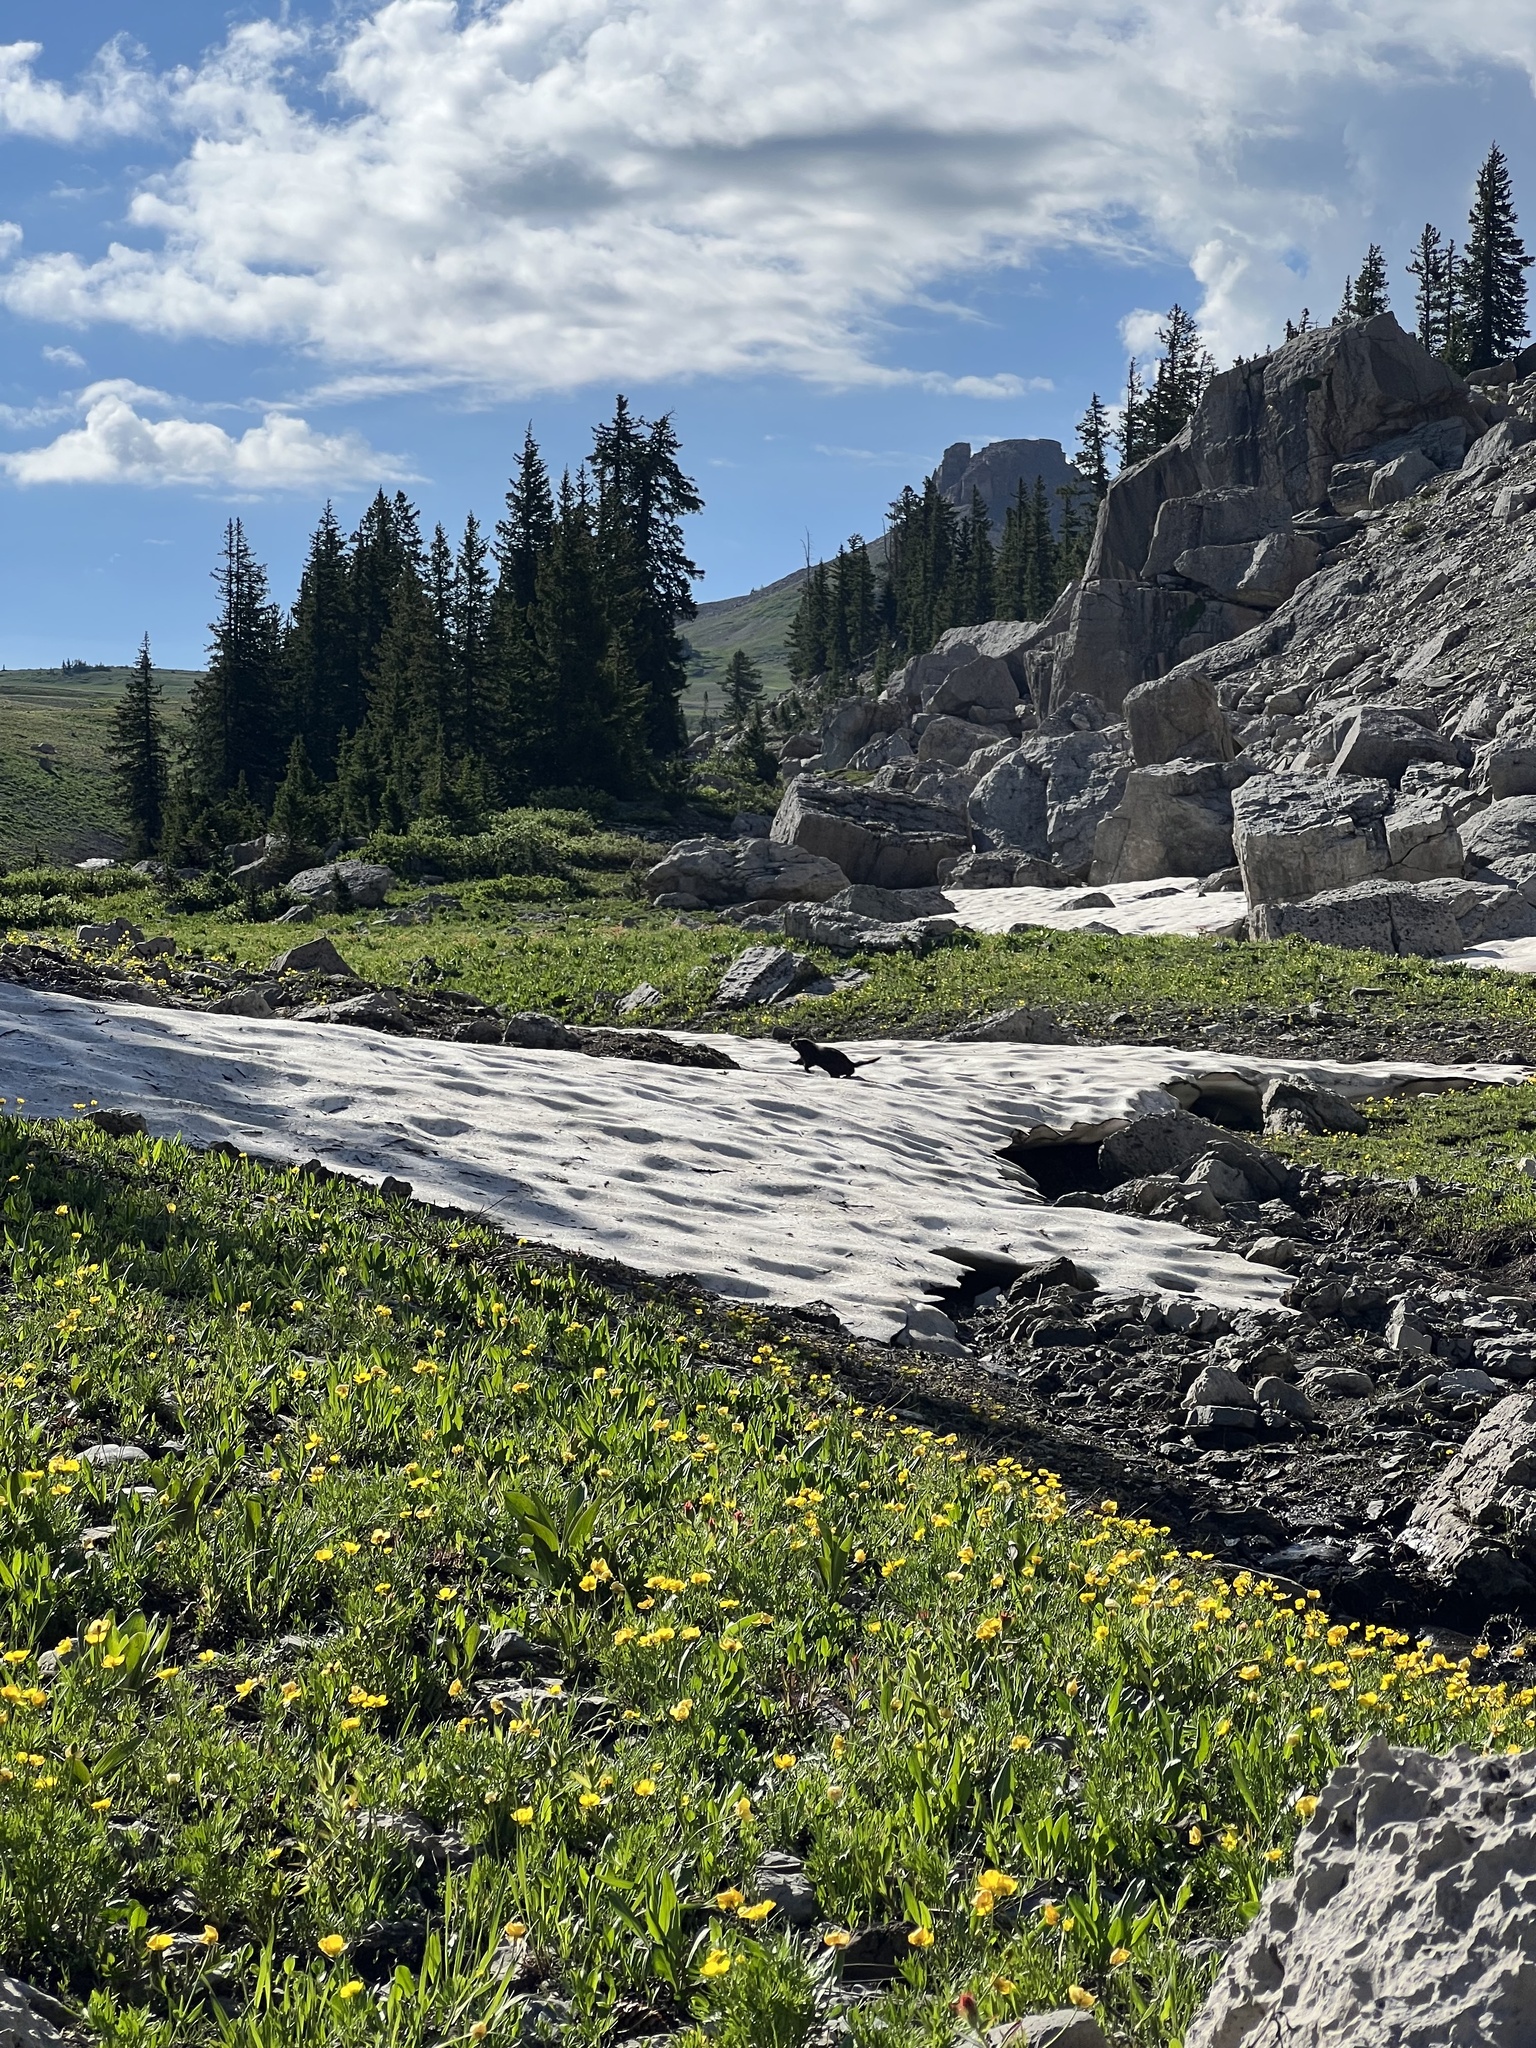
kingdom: Animalia
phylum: Chordata
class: Mammalia
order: Rodentia
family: Sciuridae
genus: Marmota
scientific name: Marmota flaviventris
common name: Yellow-bellied marmot
